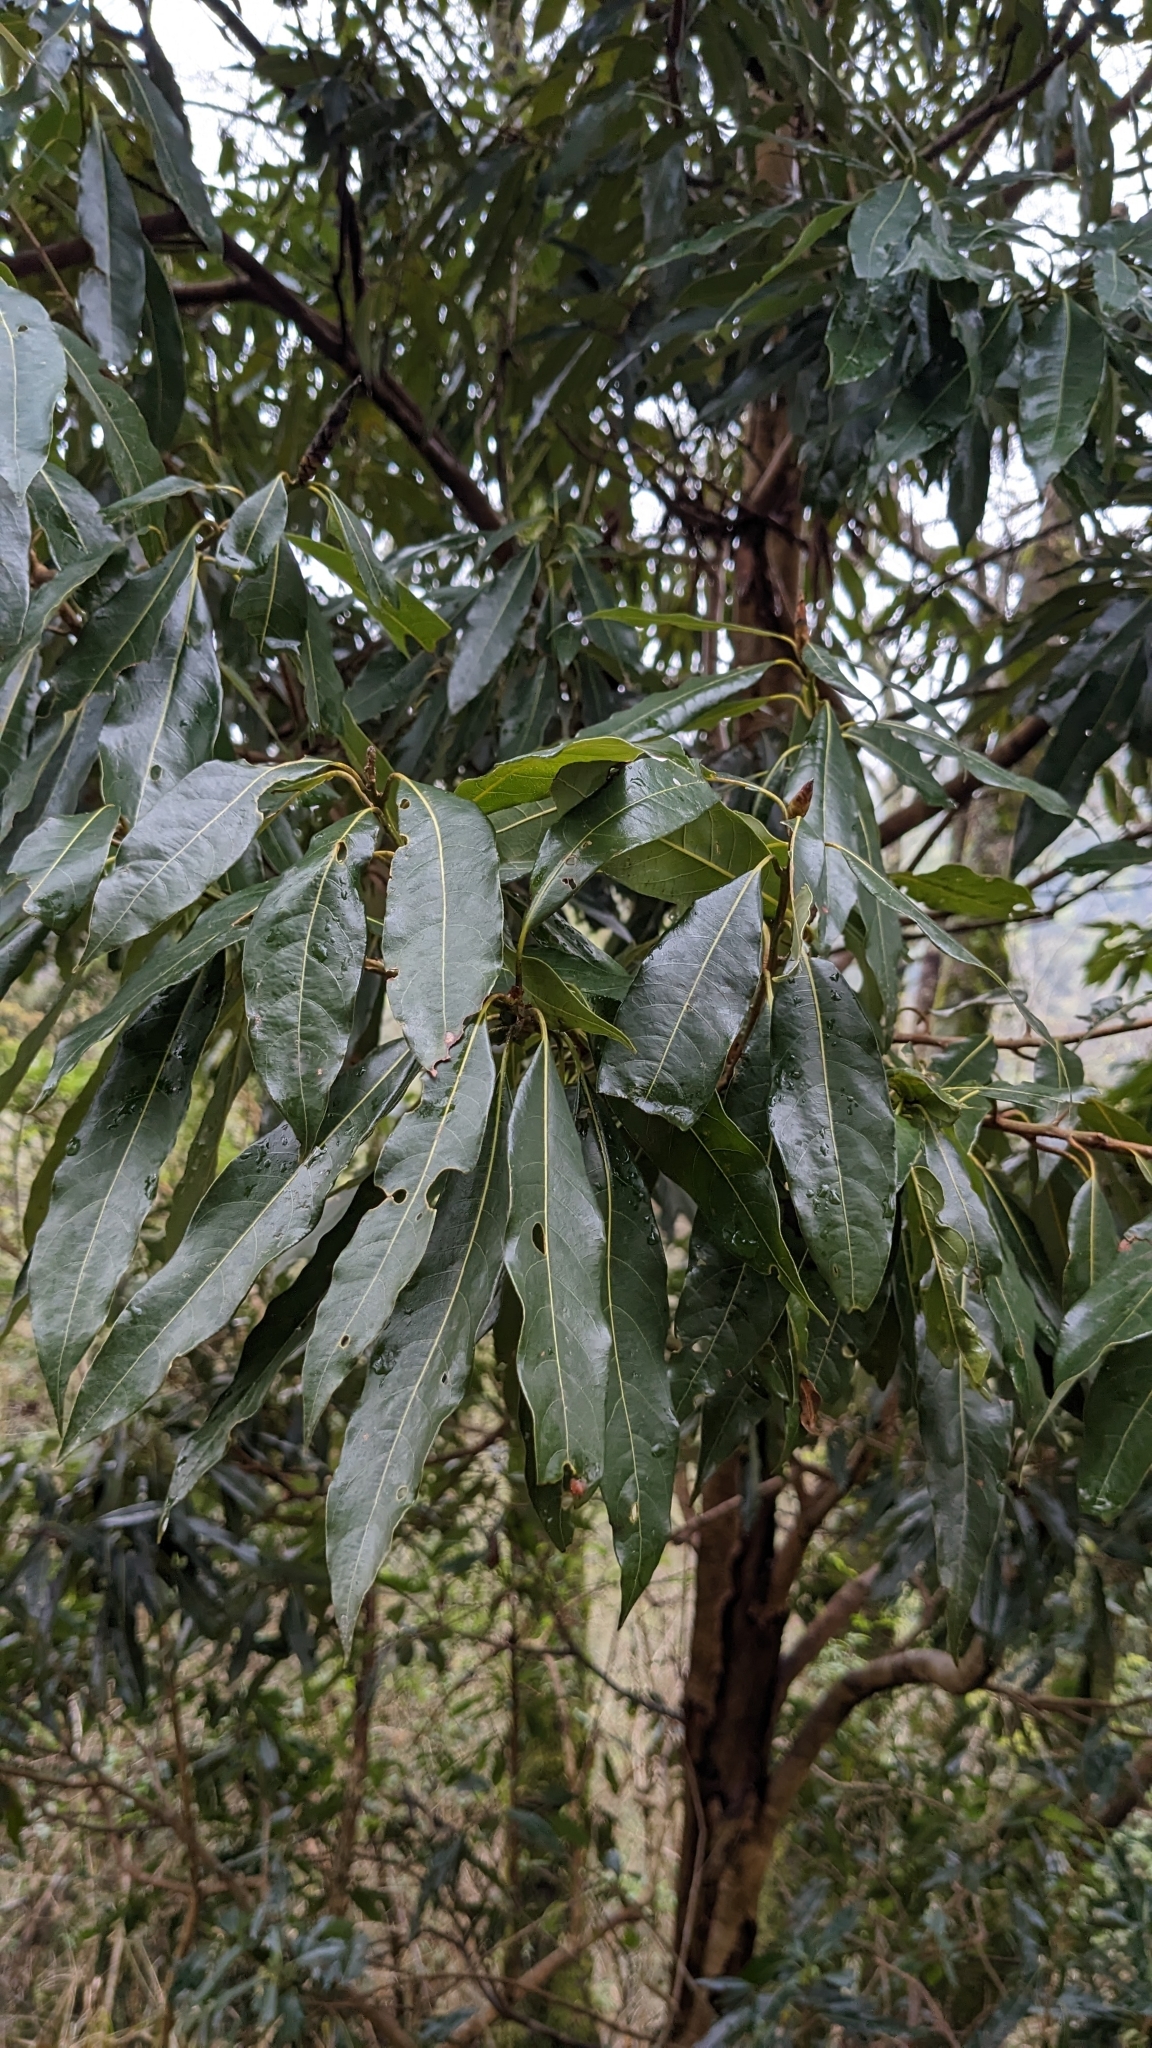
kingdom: Plantae
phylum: Tracheophyta
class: Magnoliopsida
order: Laurales
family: Lauraceae
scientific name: Lauraceae
